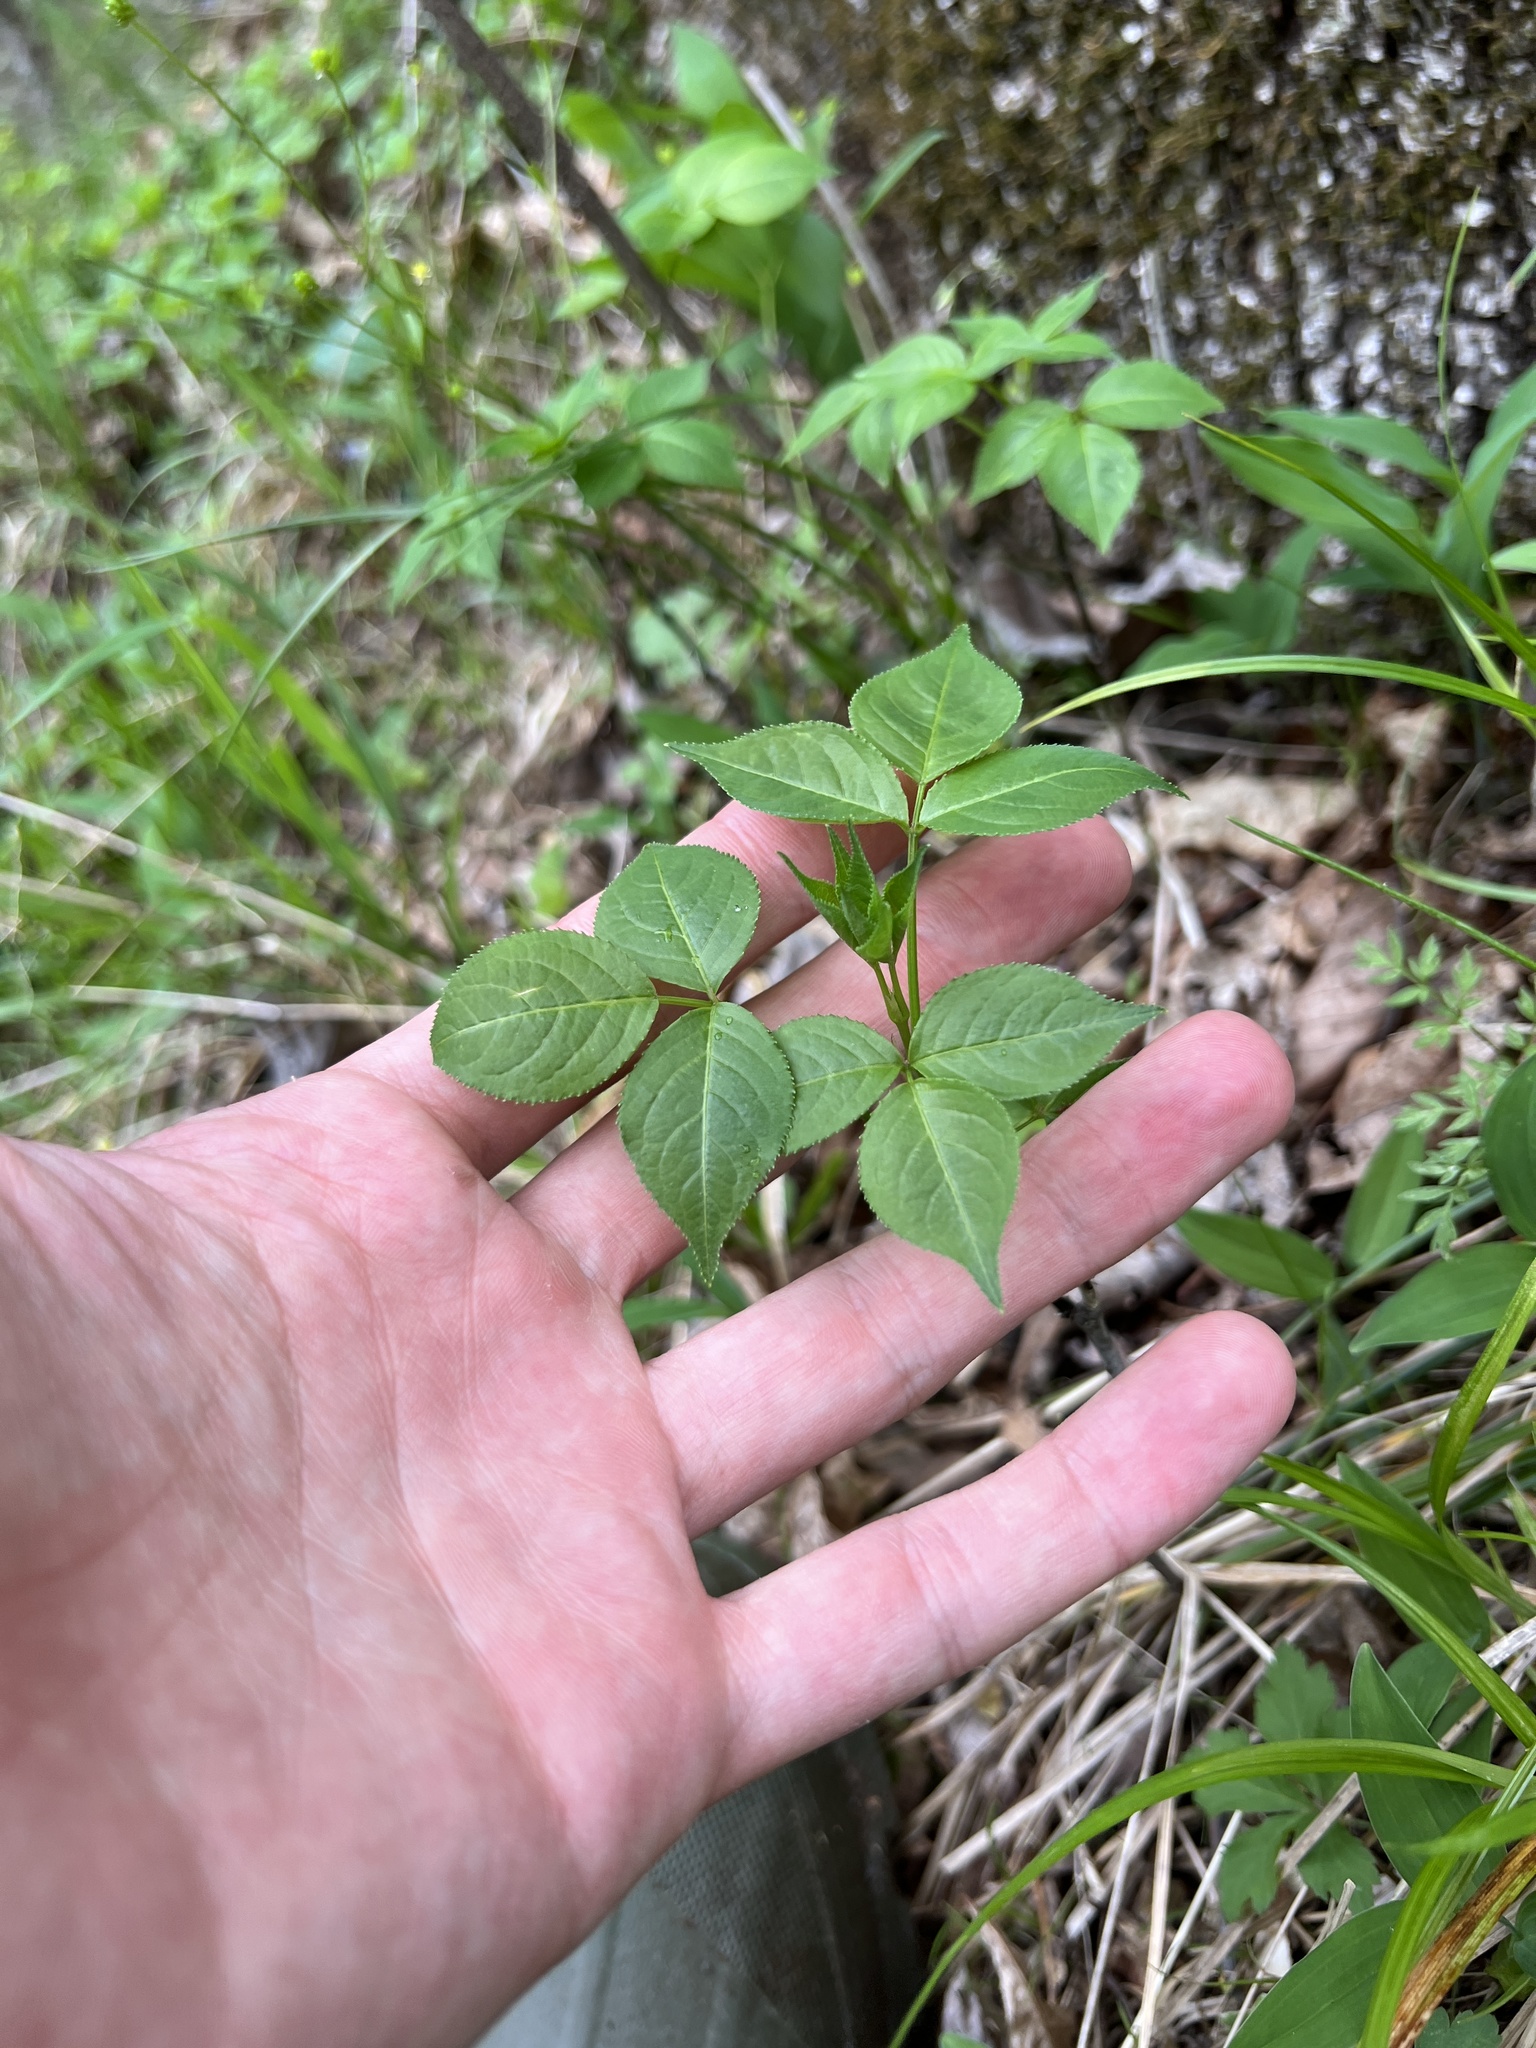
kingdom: Plantae
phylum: Tracheophyta
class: Magnoliopsida
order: Crossosomatales
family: Staphyleaceae
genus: Staphylea
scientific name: Staphylea trifolia
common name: American bladdernut
